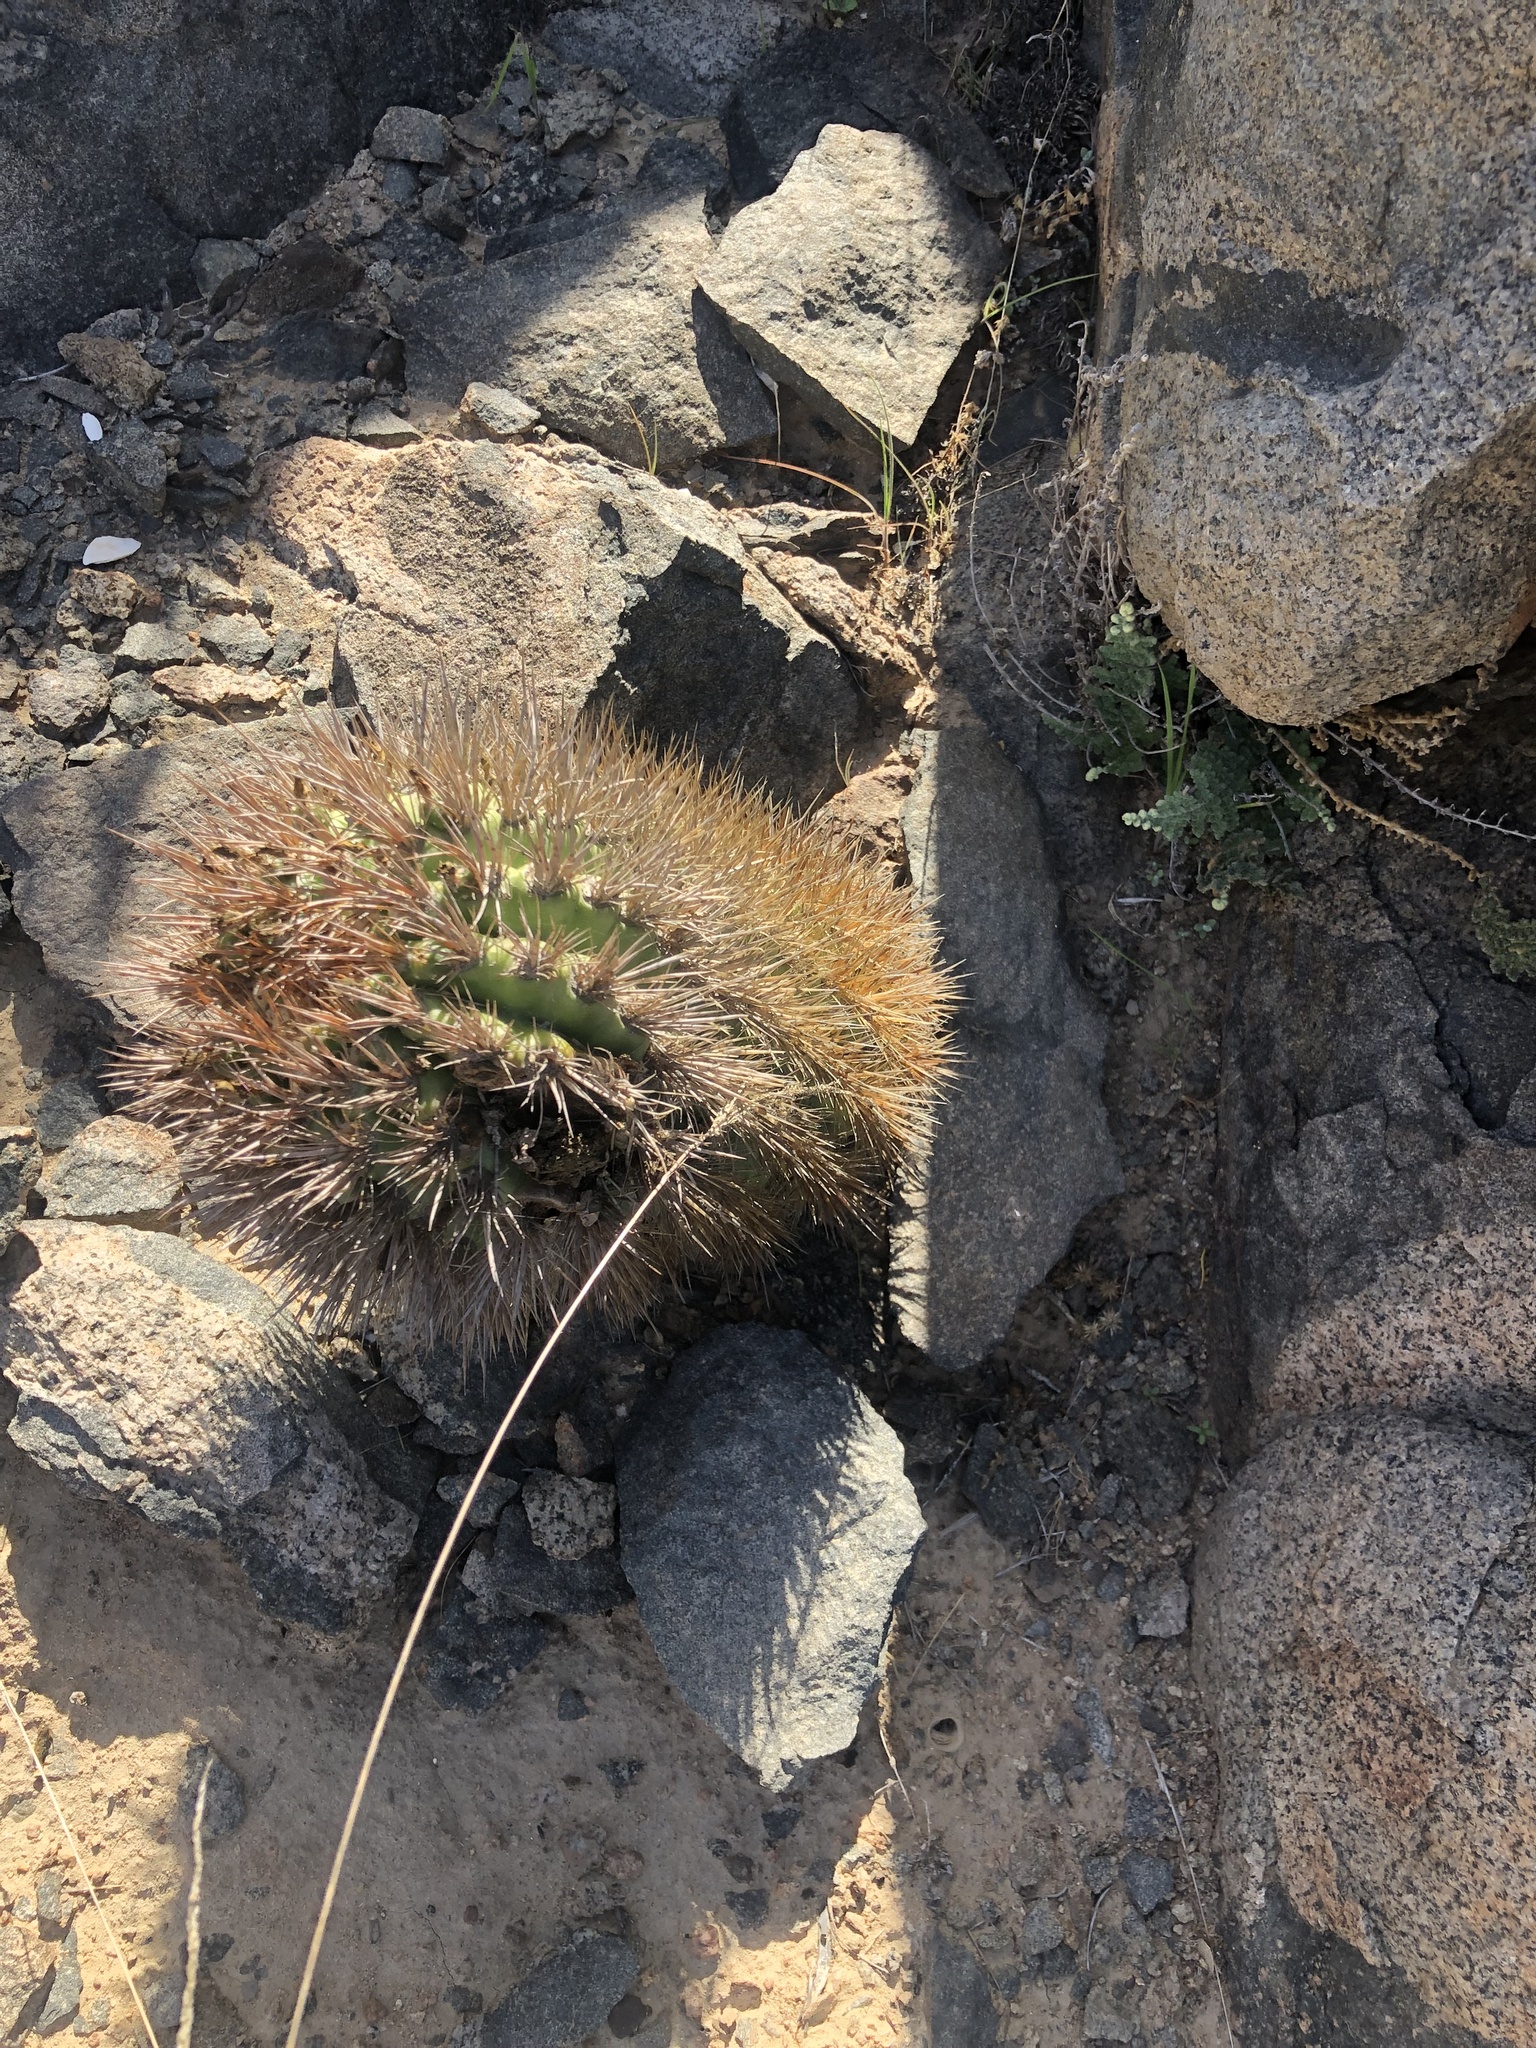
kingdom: Plantae
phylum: Tracheophyta
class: Magnoliopsida
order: Caryophyllales
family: Cactaceae
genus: Eriosyce
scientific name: Eriosyce subgibbosa
